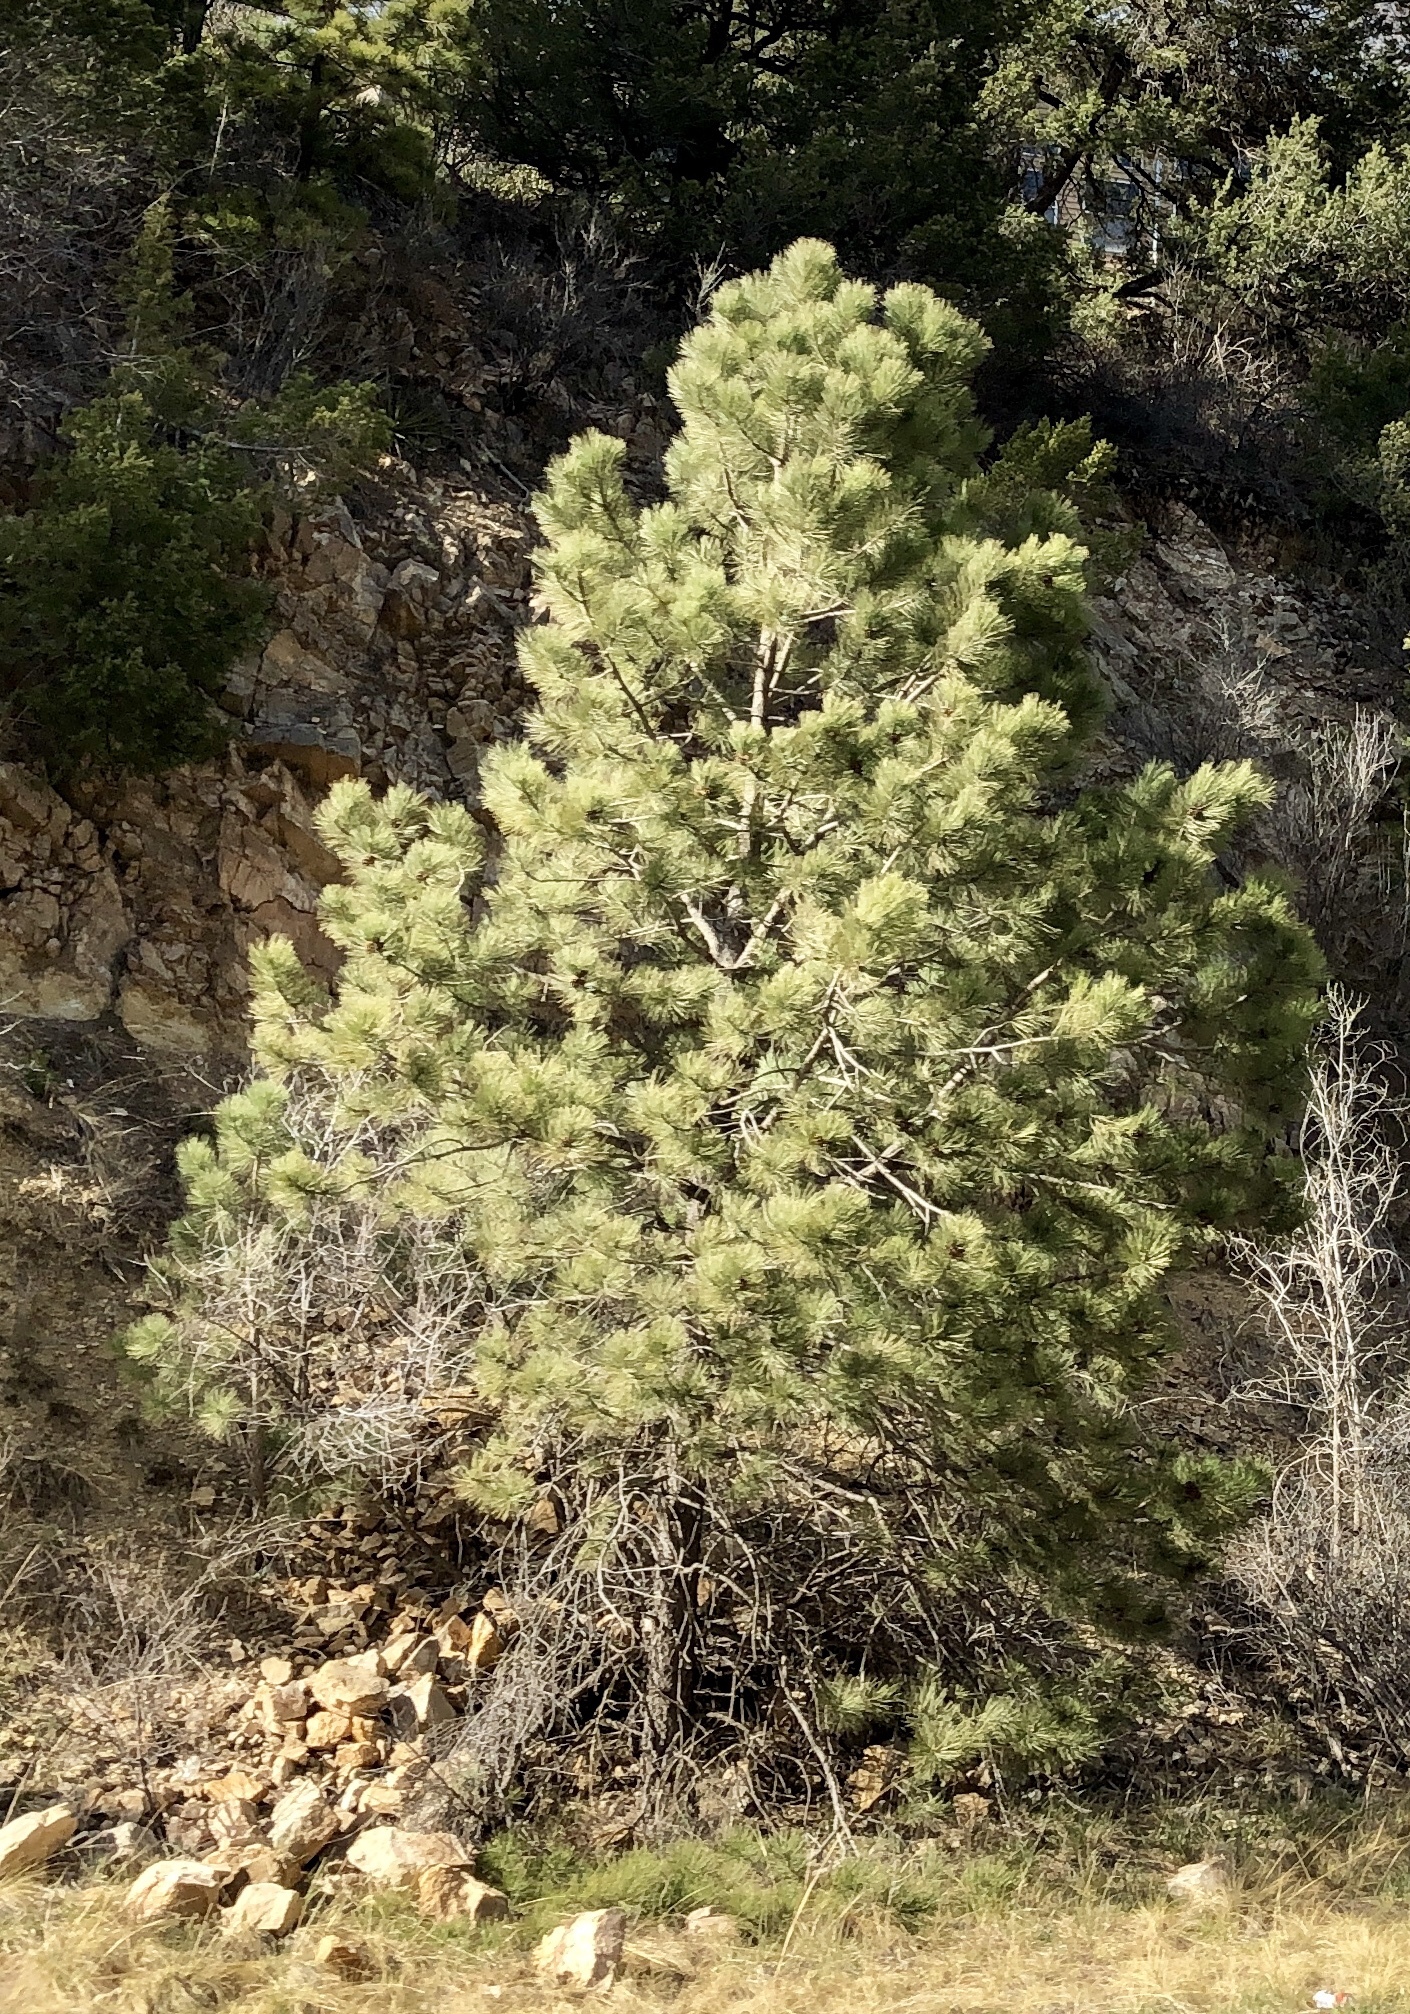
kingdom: Plantae
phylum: Tracheophyta
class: Pinopsida
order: Pinales
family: Pinaceae
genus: Pinus
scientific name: Pinus ponderosa
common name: Western yellow-pine
